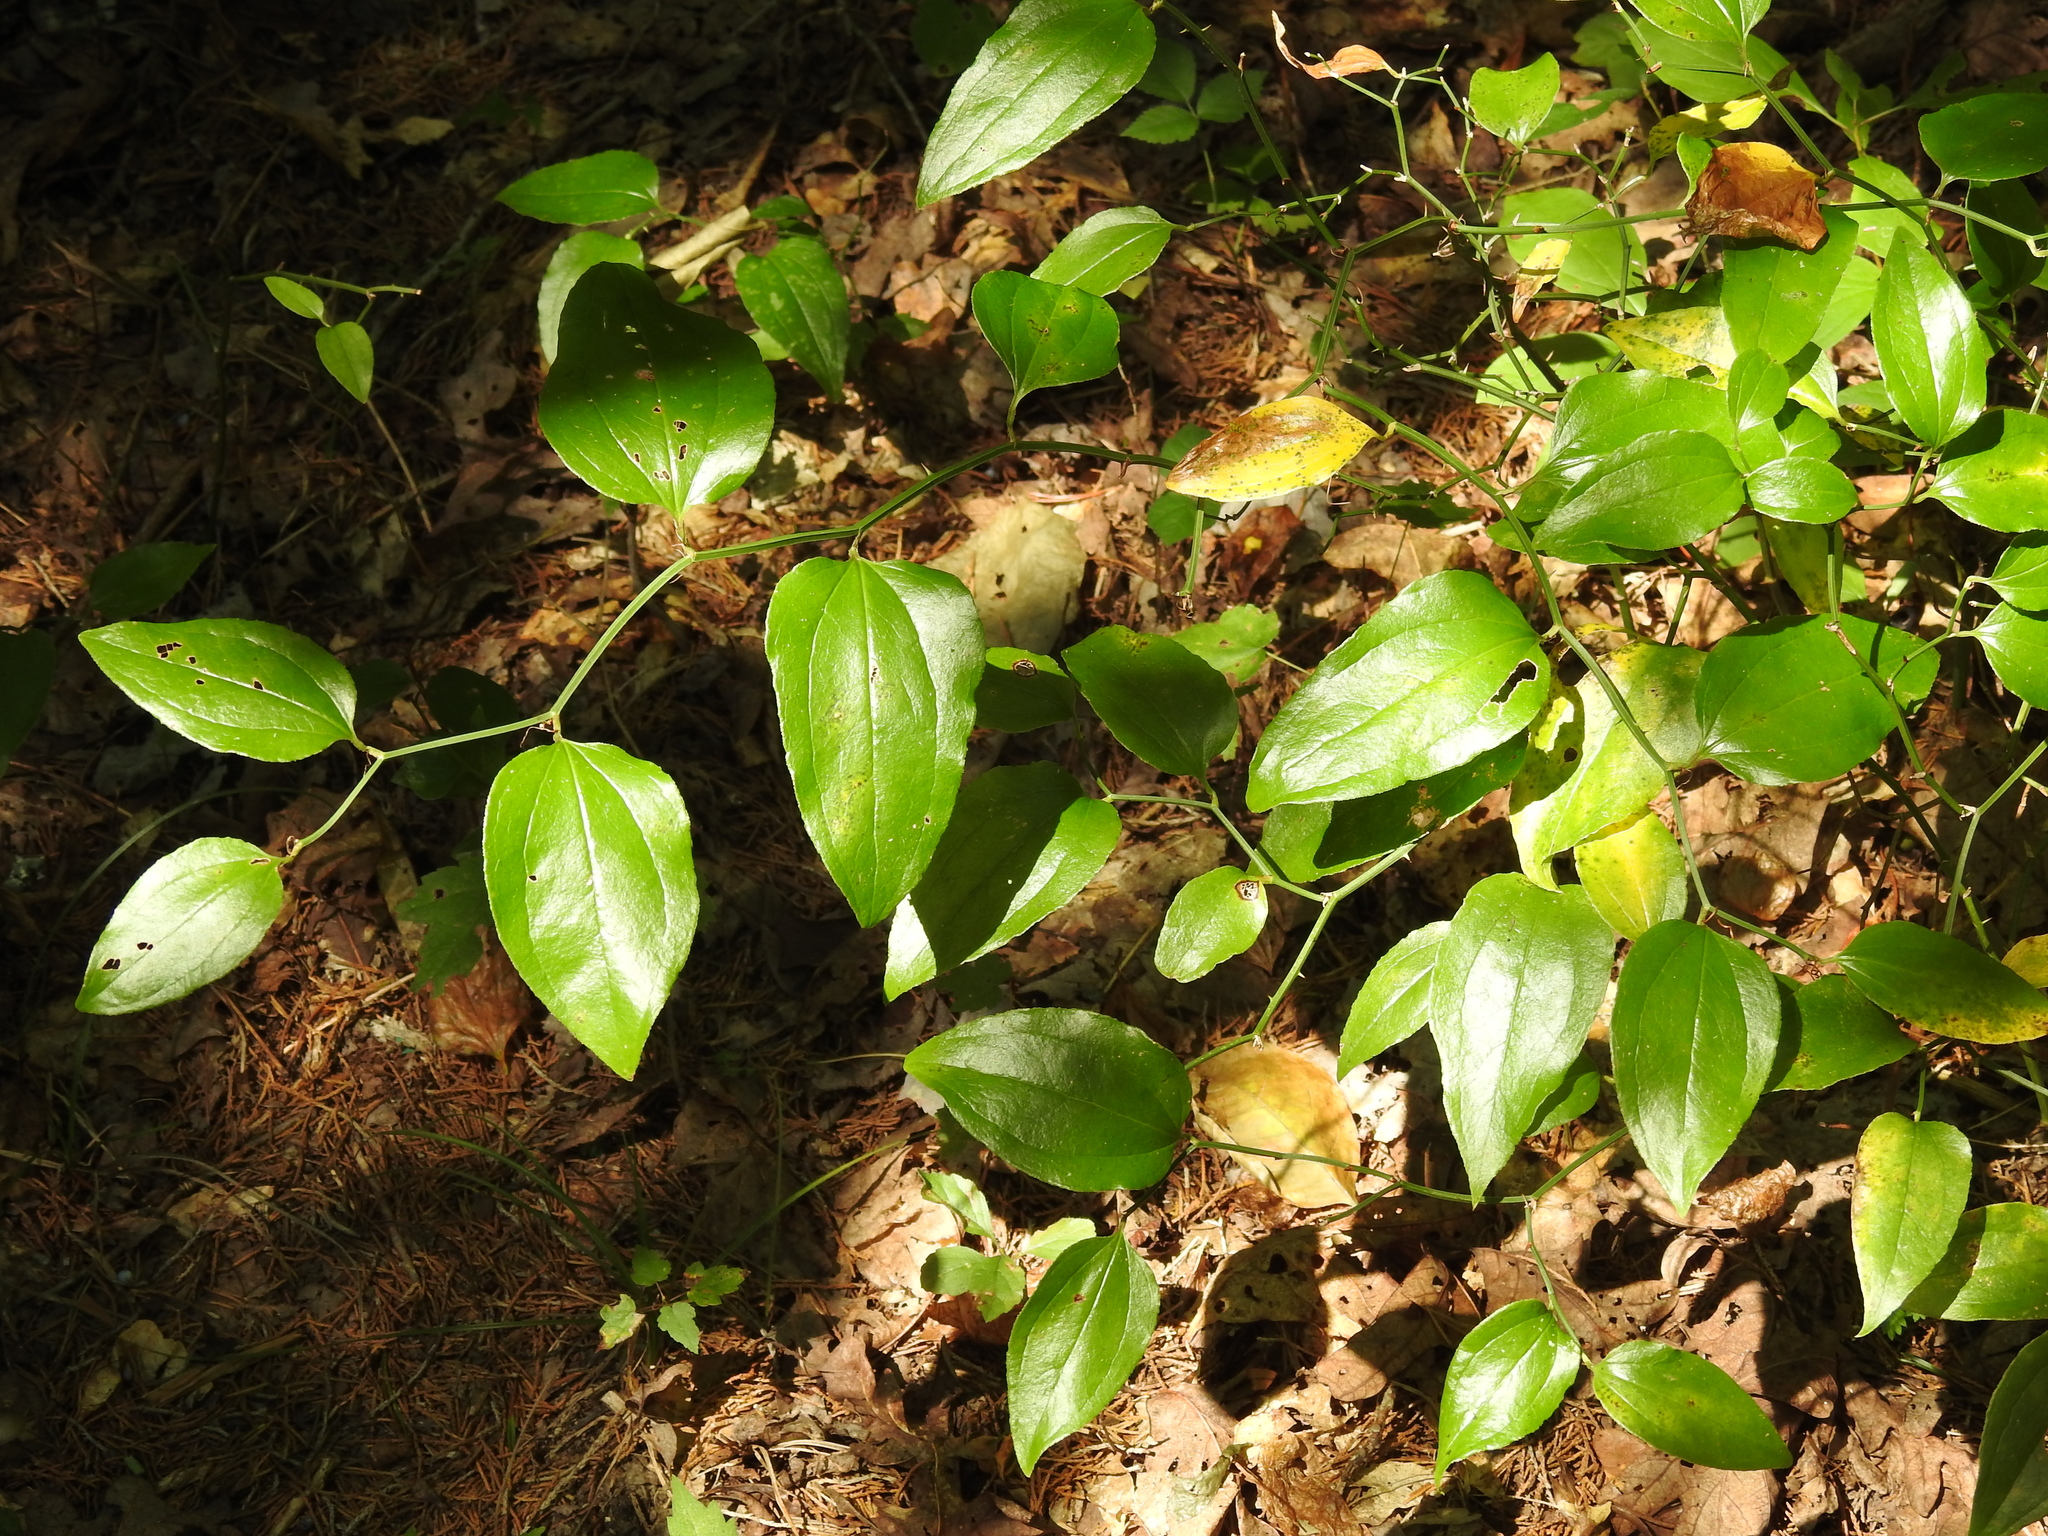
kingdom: Plantae
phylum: Tracheophyta
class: Liliopsida
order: Liliales
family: Smilacaceae
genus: Smilax
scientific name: Smilax rotundifolia
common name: Bullbriar
